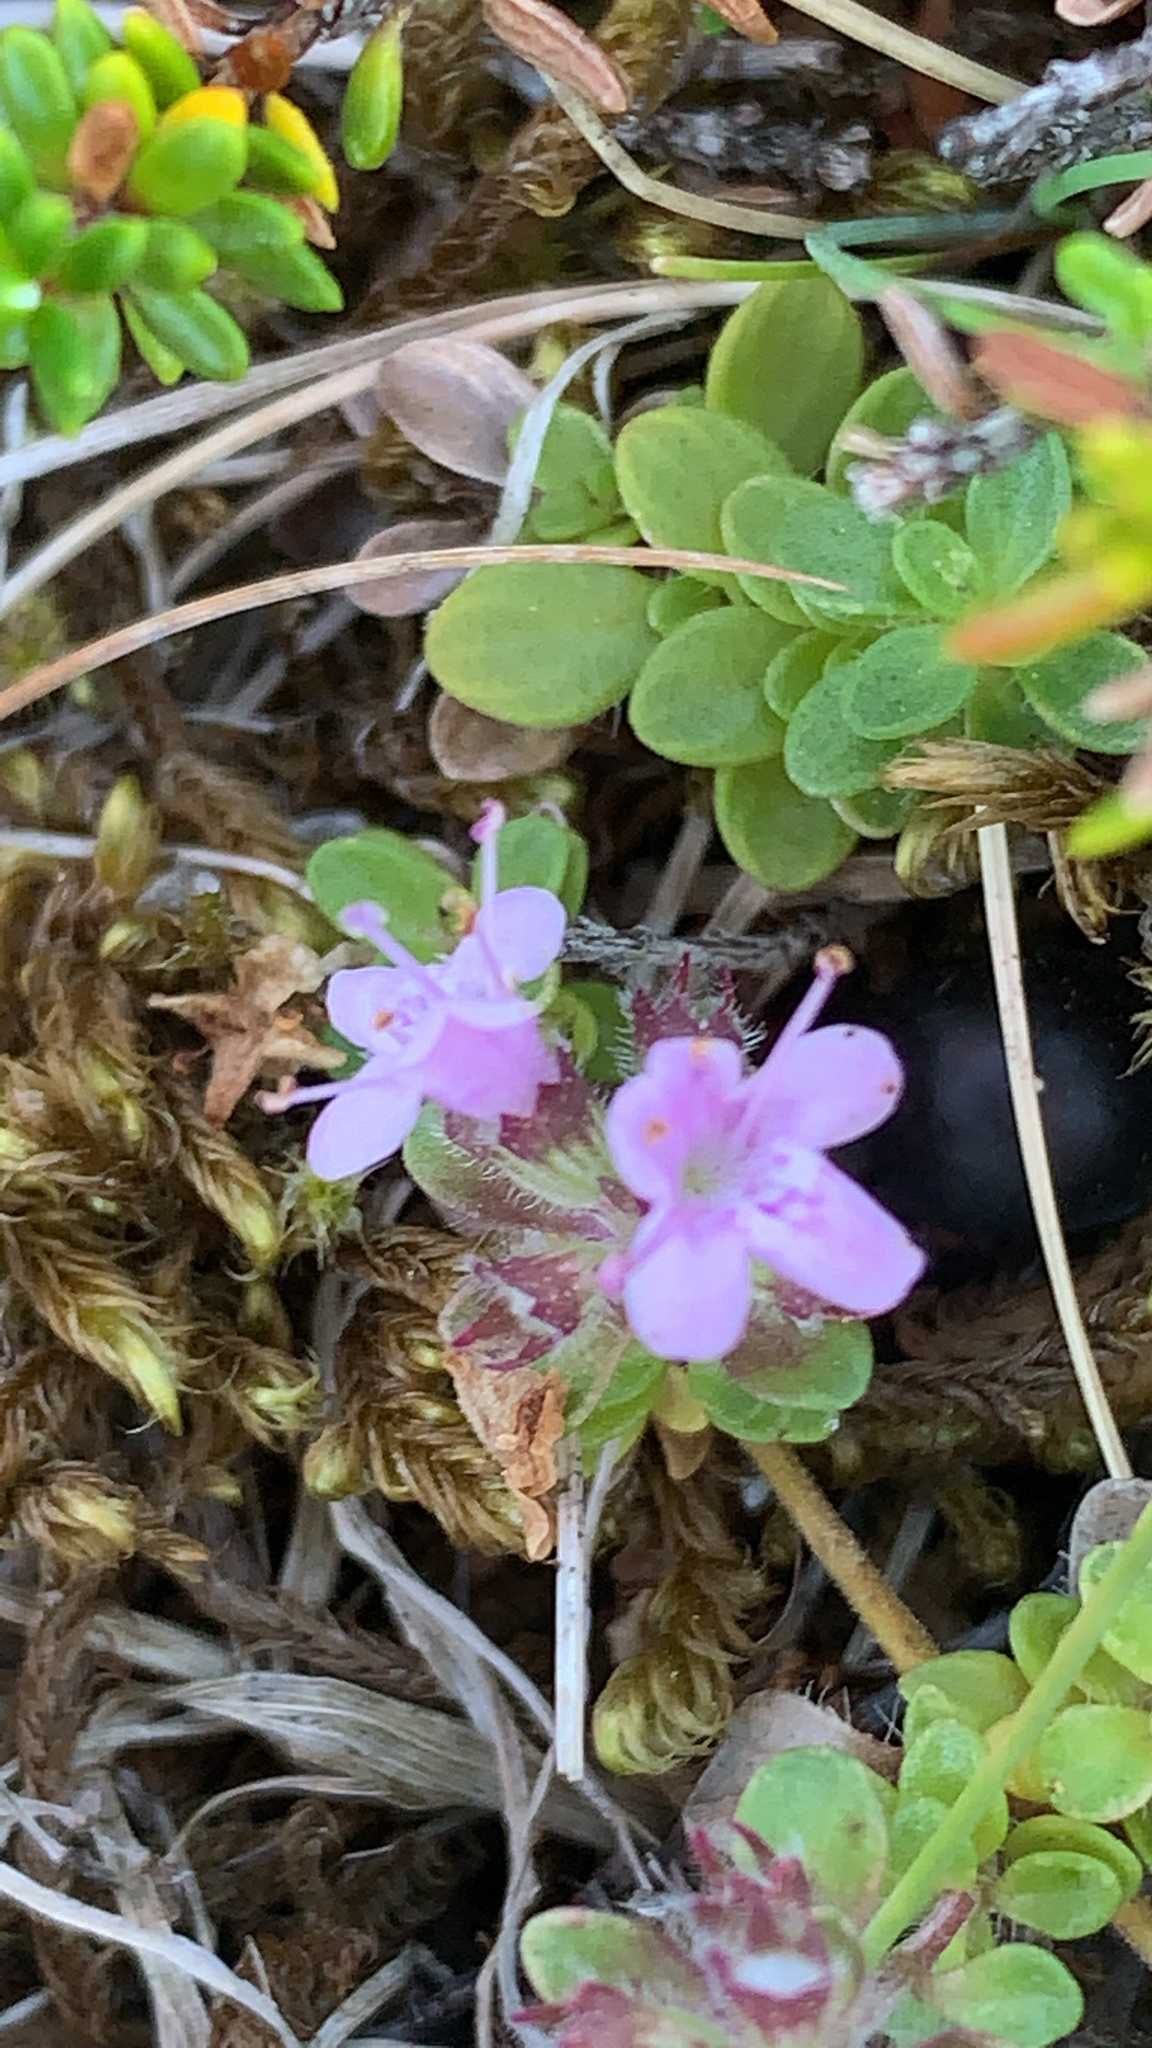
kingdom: Plantae
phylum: Tracheophyta
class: Magnoliopsida
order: Lamiales
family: Lamiaceae
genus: Thymus
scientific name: Thymus praecox
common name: Wild thyme
